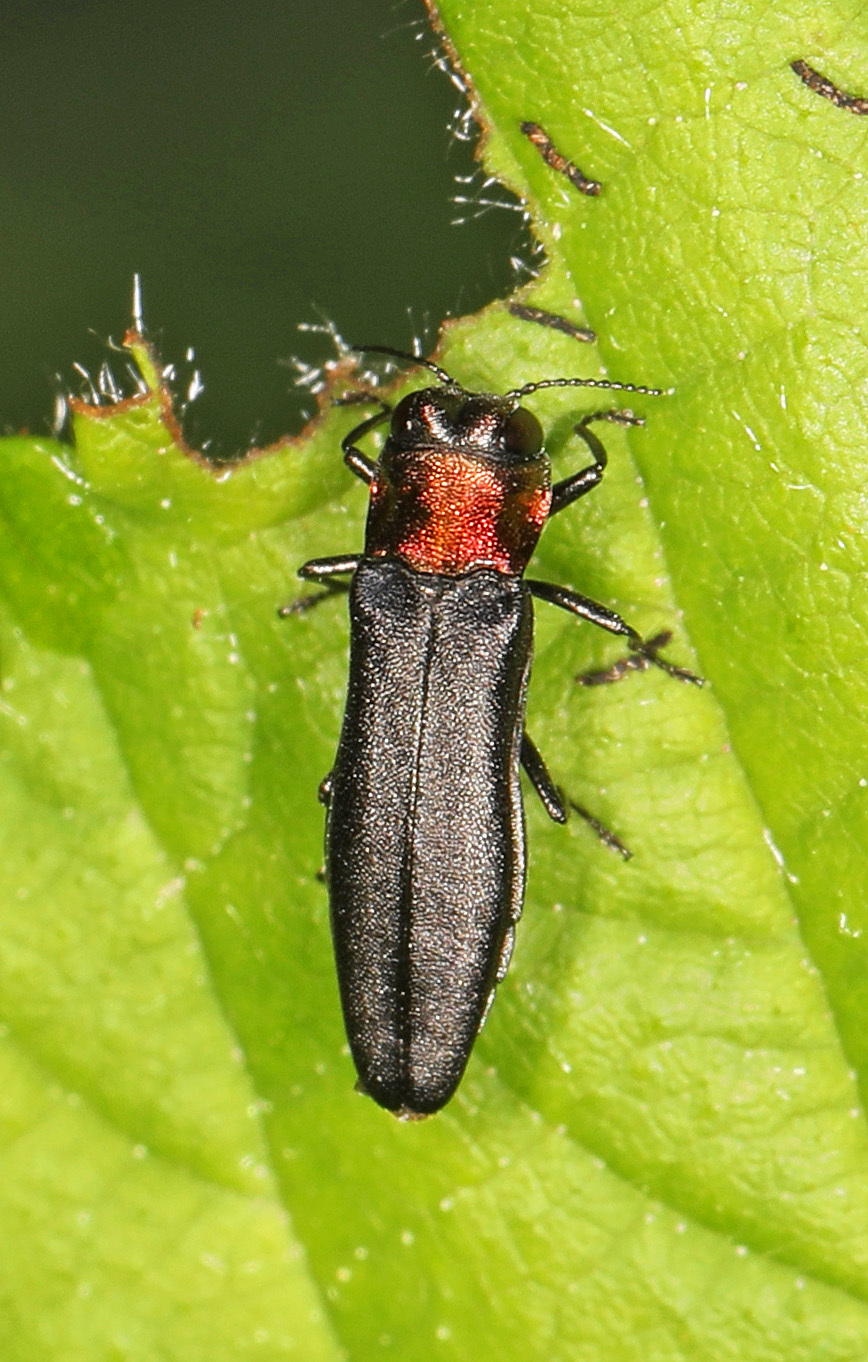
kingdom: Animalia
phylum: Arthropoda
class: Insecta
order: Coleoptera
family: Buprestidae
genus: Agrilus
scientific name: Agrilus ruficollis
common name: Red-necked cane borer beetle
